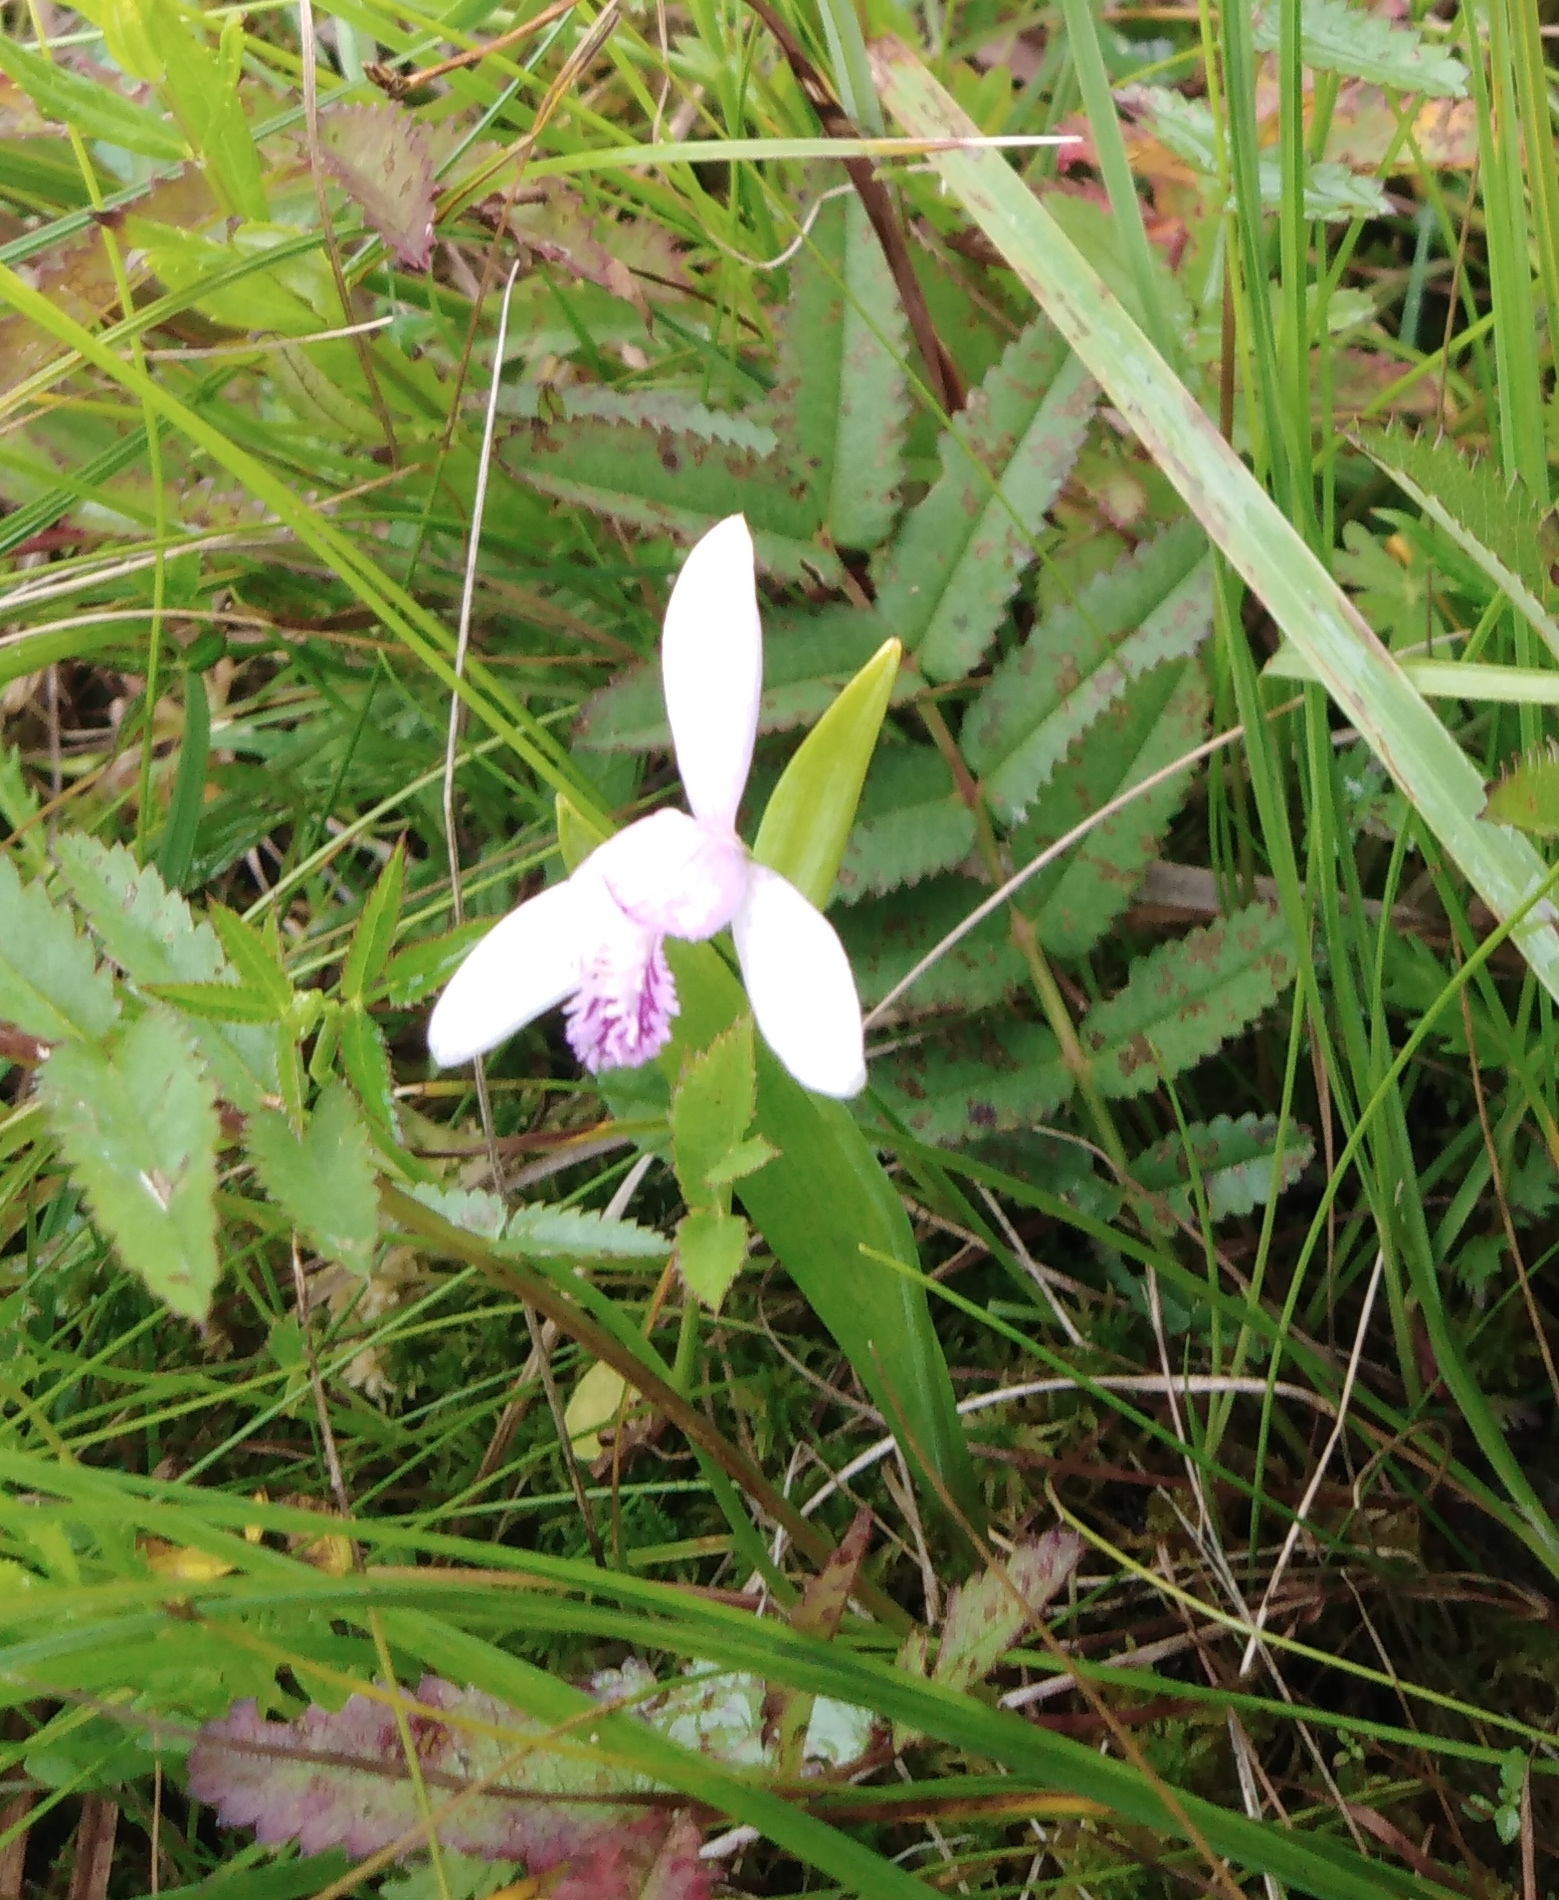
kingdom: Plantae
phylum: Tracheophyta
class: Liliopsida
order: Asparagales
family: Orchidaceae
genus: Pogonia
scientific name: Pogonia japonica
